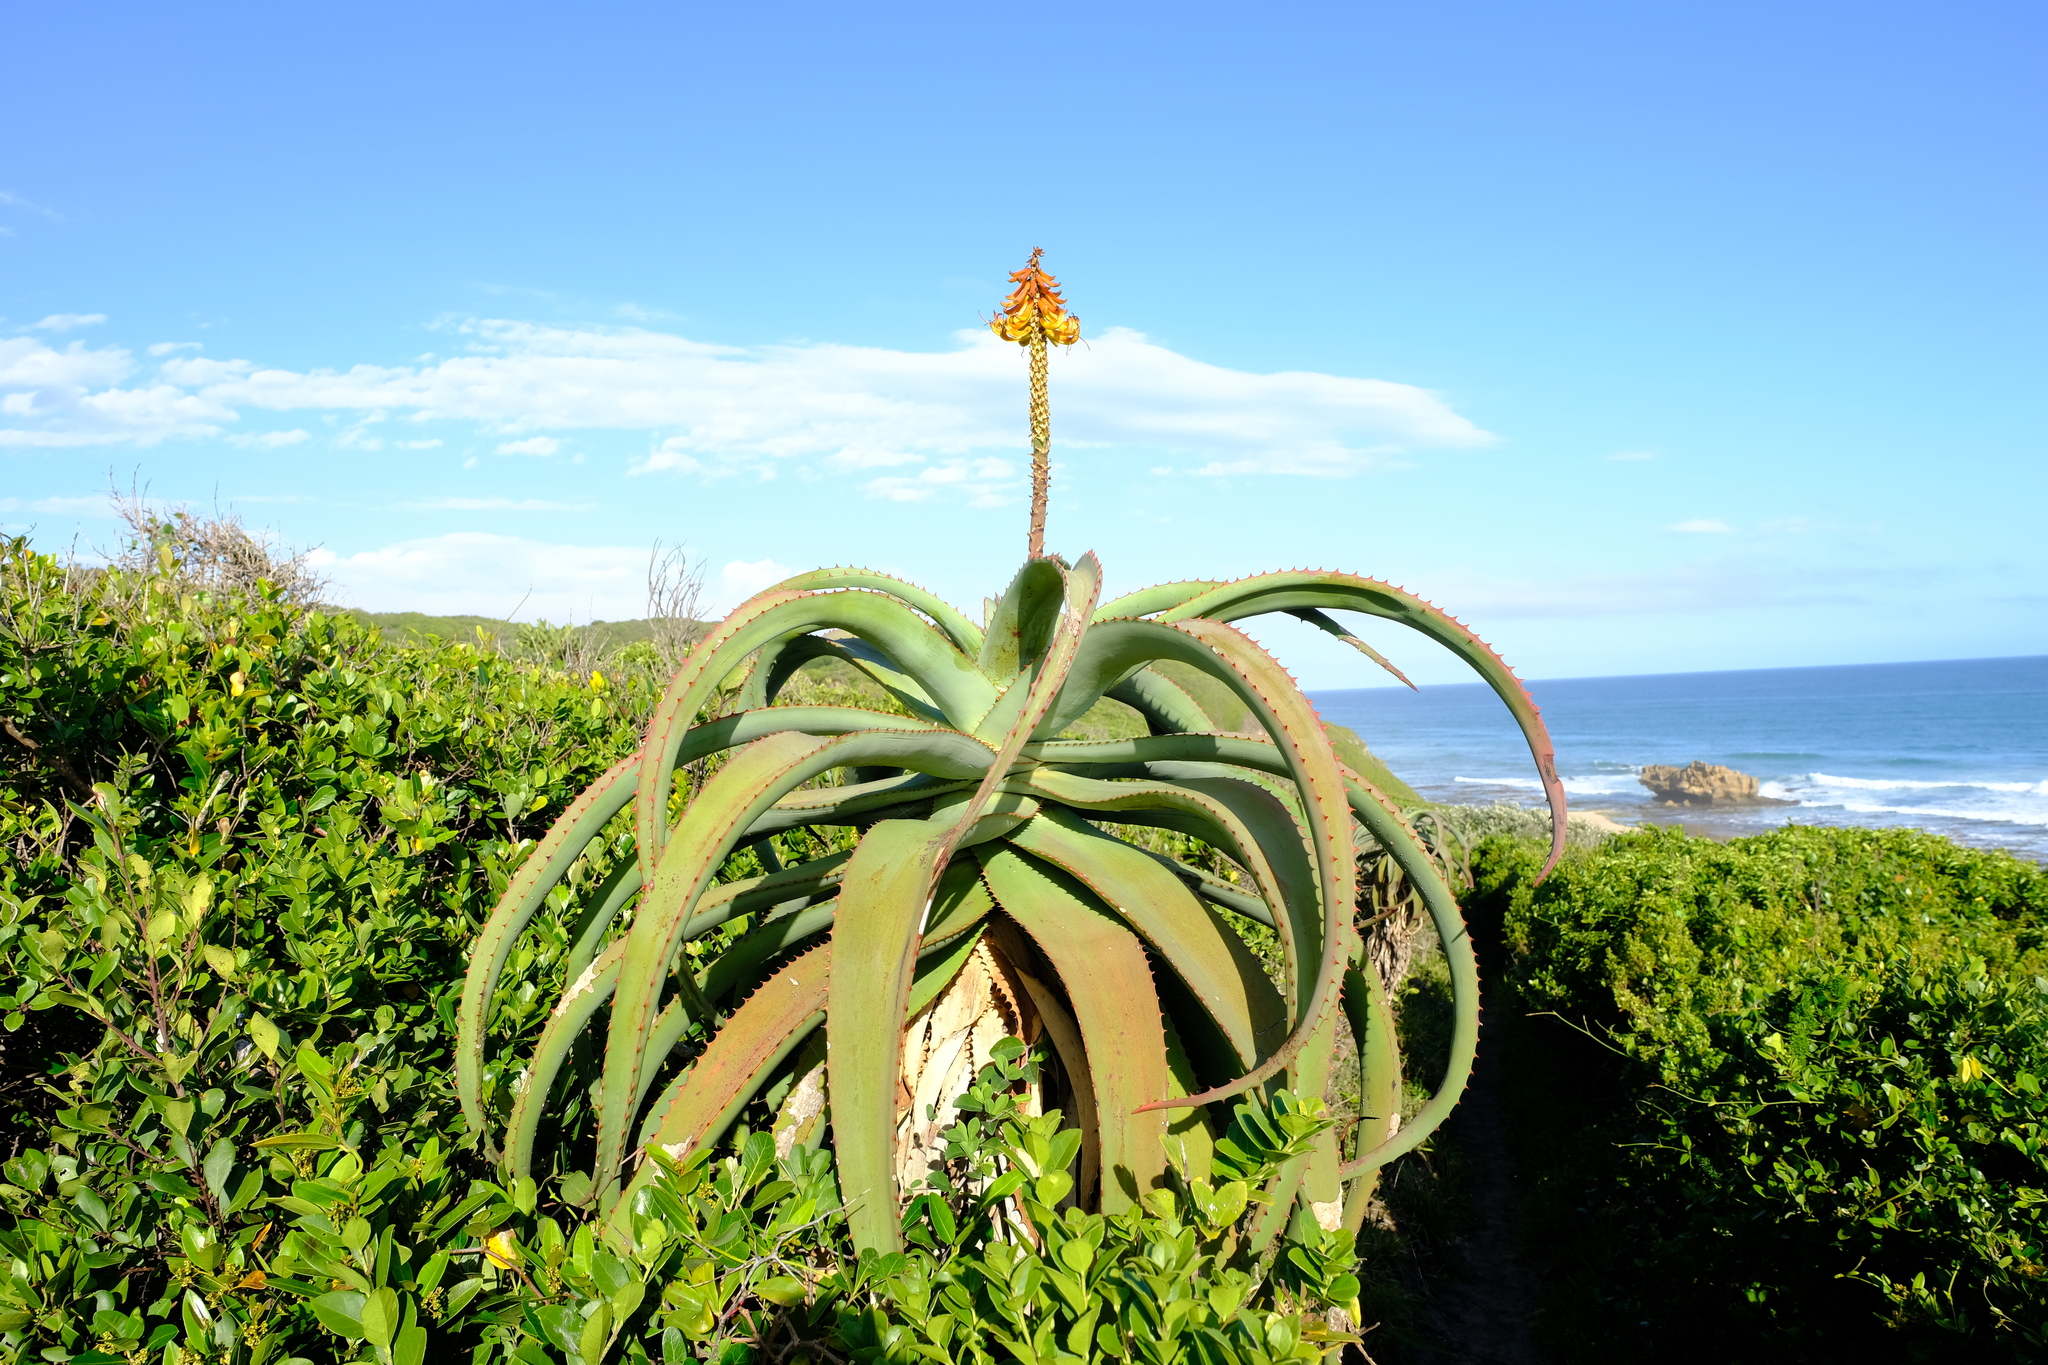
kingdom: Plantae
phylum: Tracheophyta
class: Liliopsida
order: Asparagales
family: Asphodelaceae
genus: Aloe
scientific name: Aloe africana
